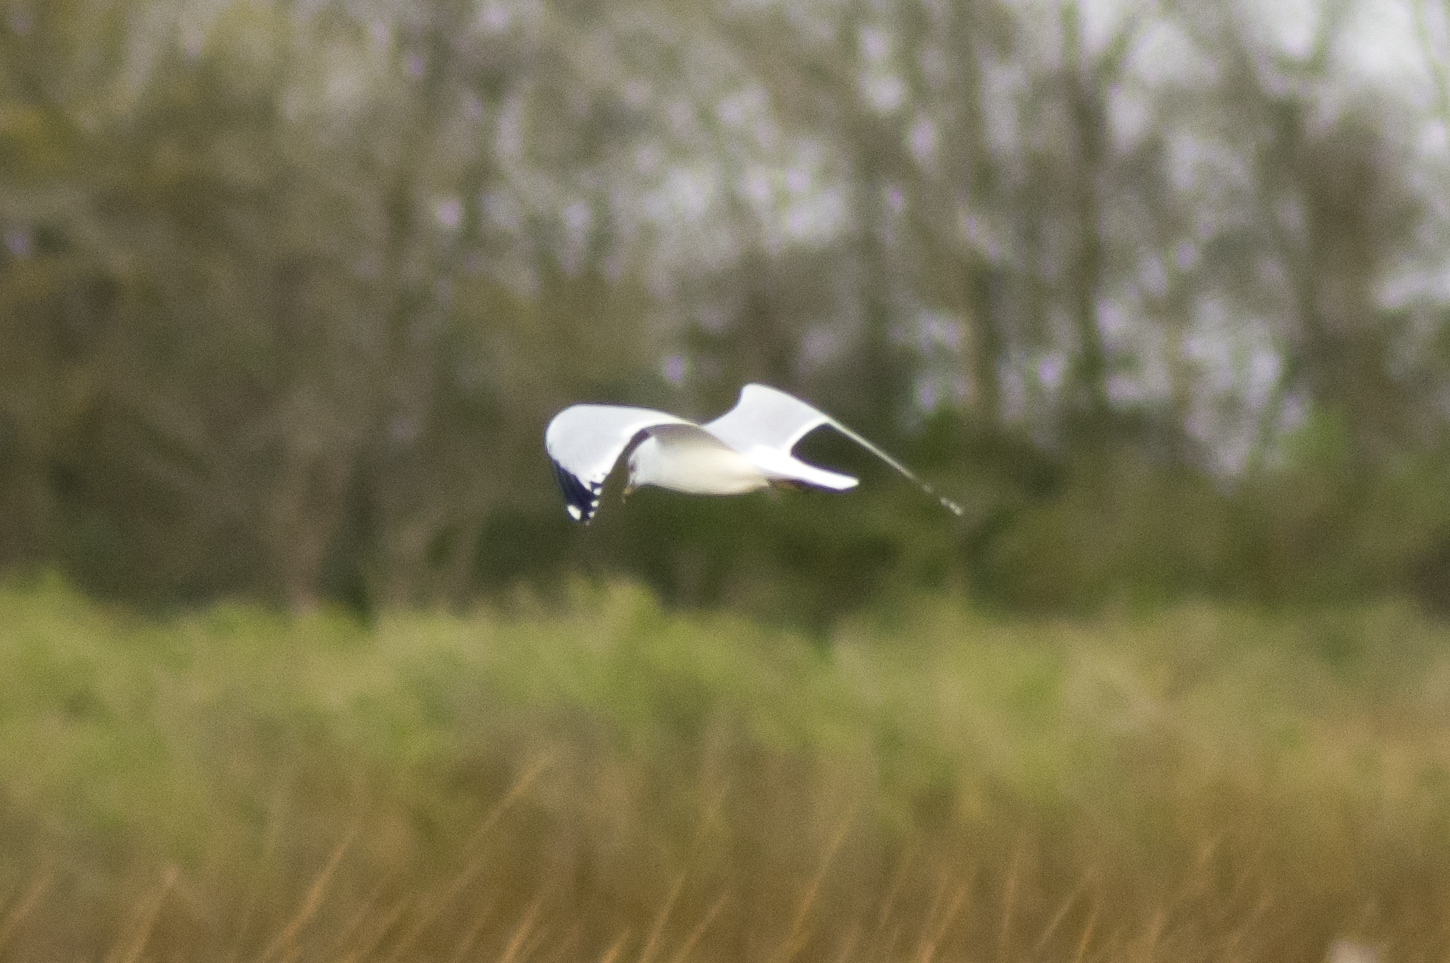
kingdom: Animalia
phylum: Chordata
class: Aves
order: Charadriiformes
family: Laridae
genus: Larus
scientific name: Larus delawarensis
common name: Ring-billed gull
